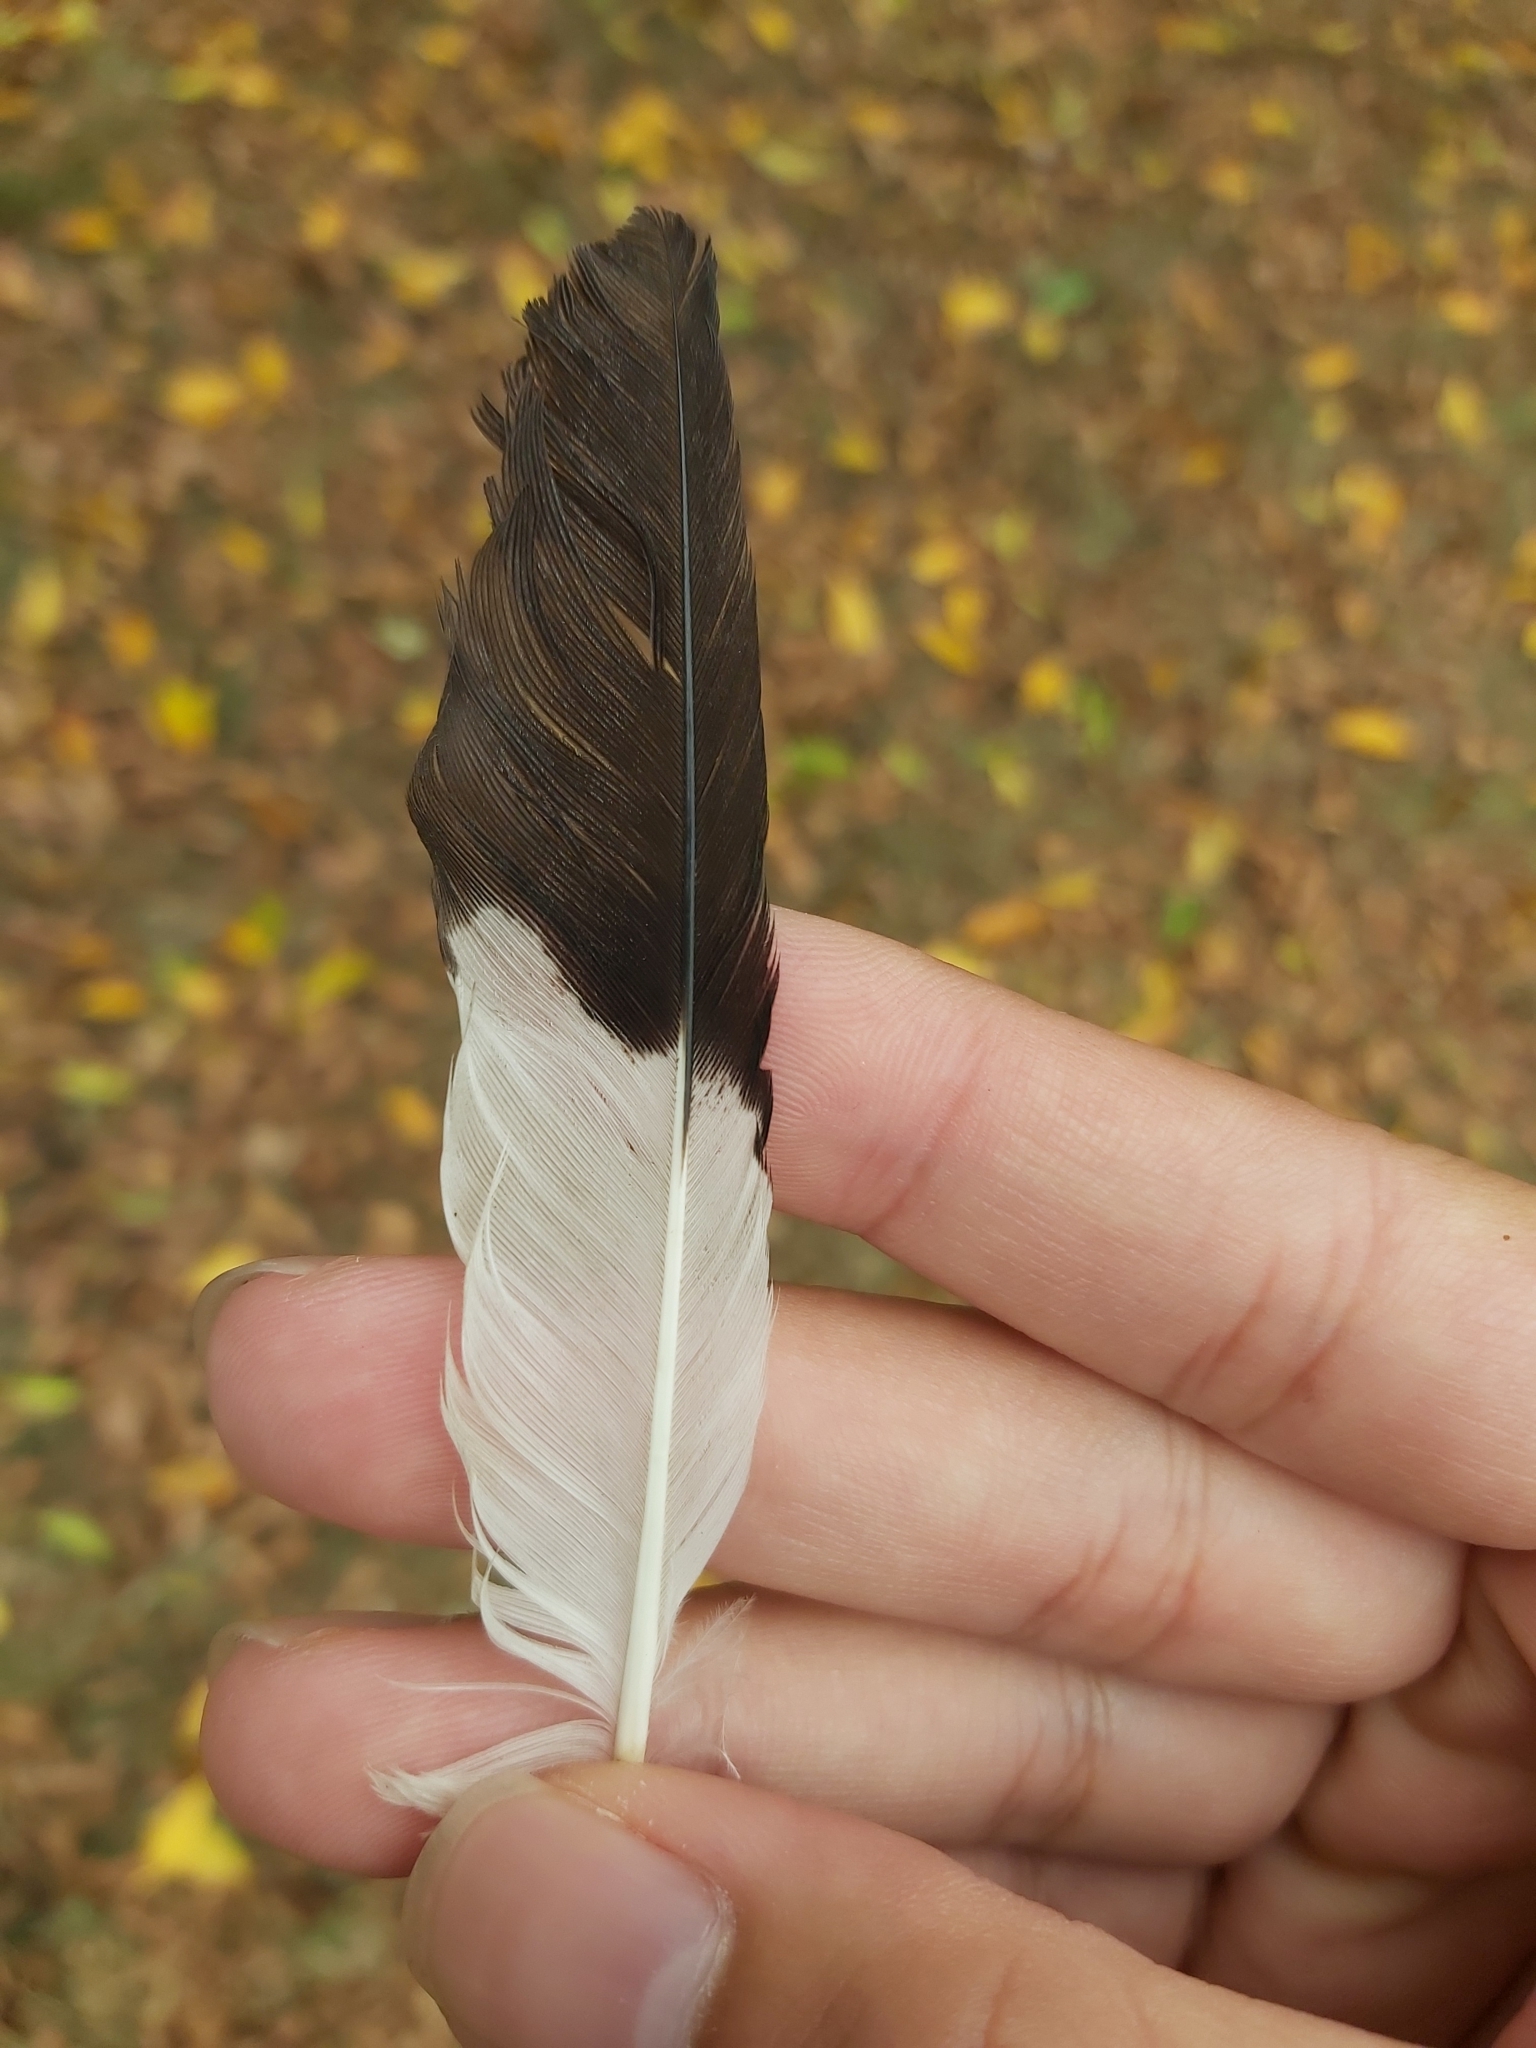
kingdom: Animalia
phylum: Chordata
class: Aves
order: Passeriformes
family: Sturnidae
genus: Acridotheres
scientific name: Acridotheres tristis
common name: Common myna
